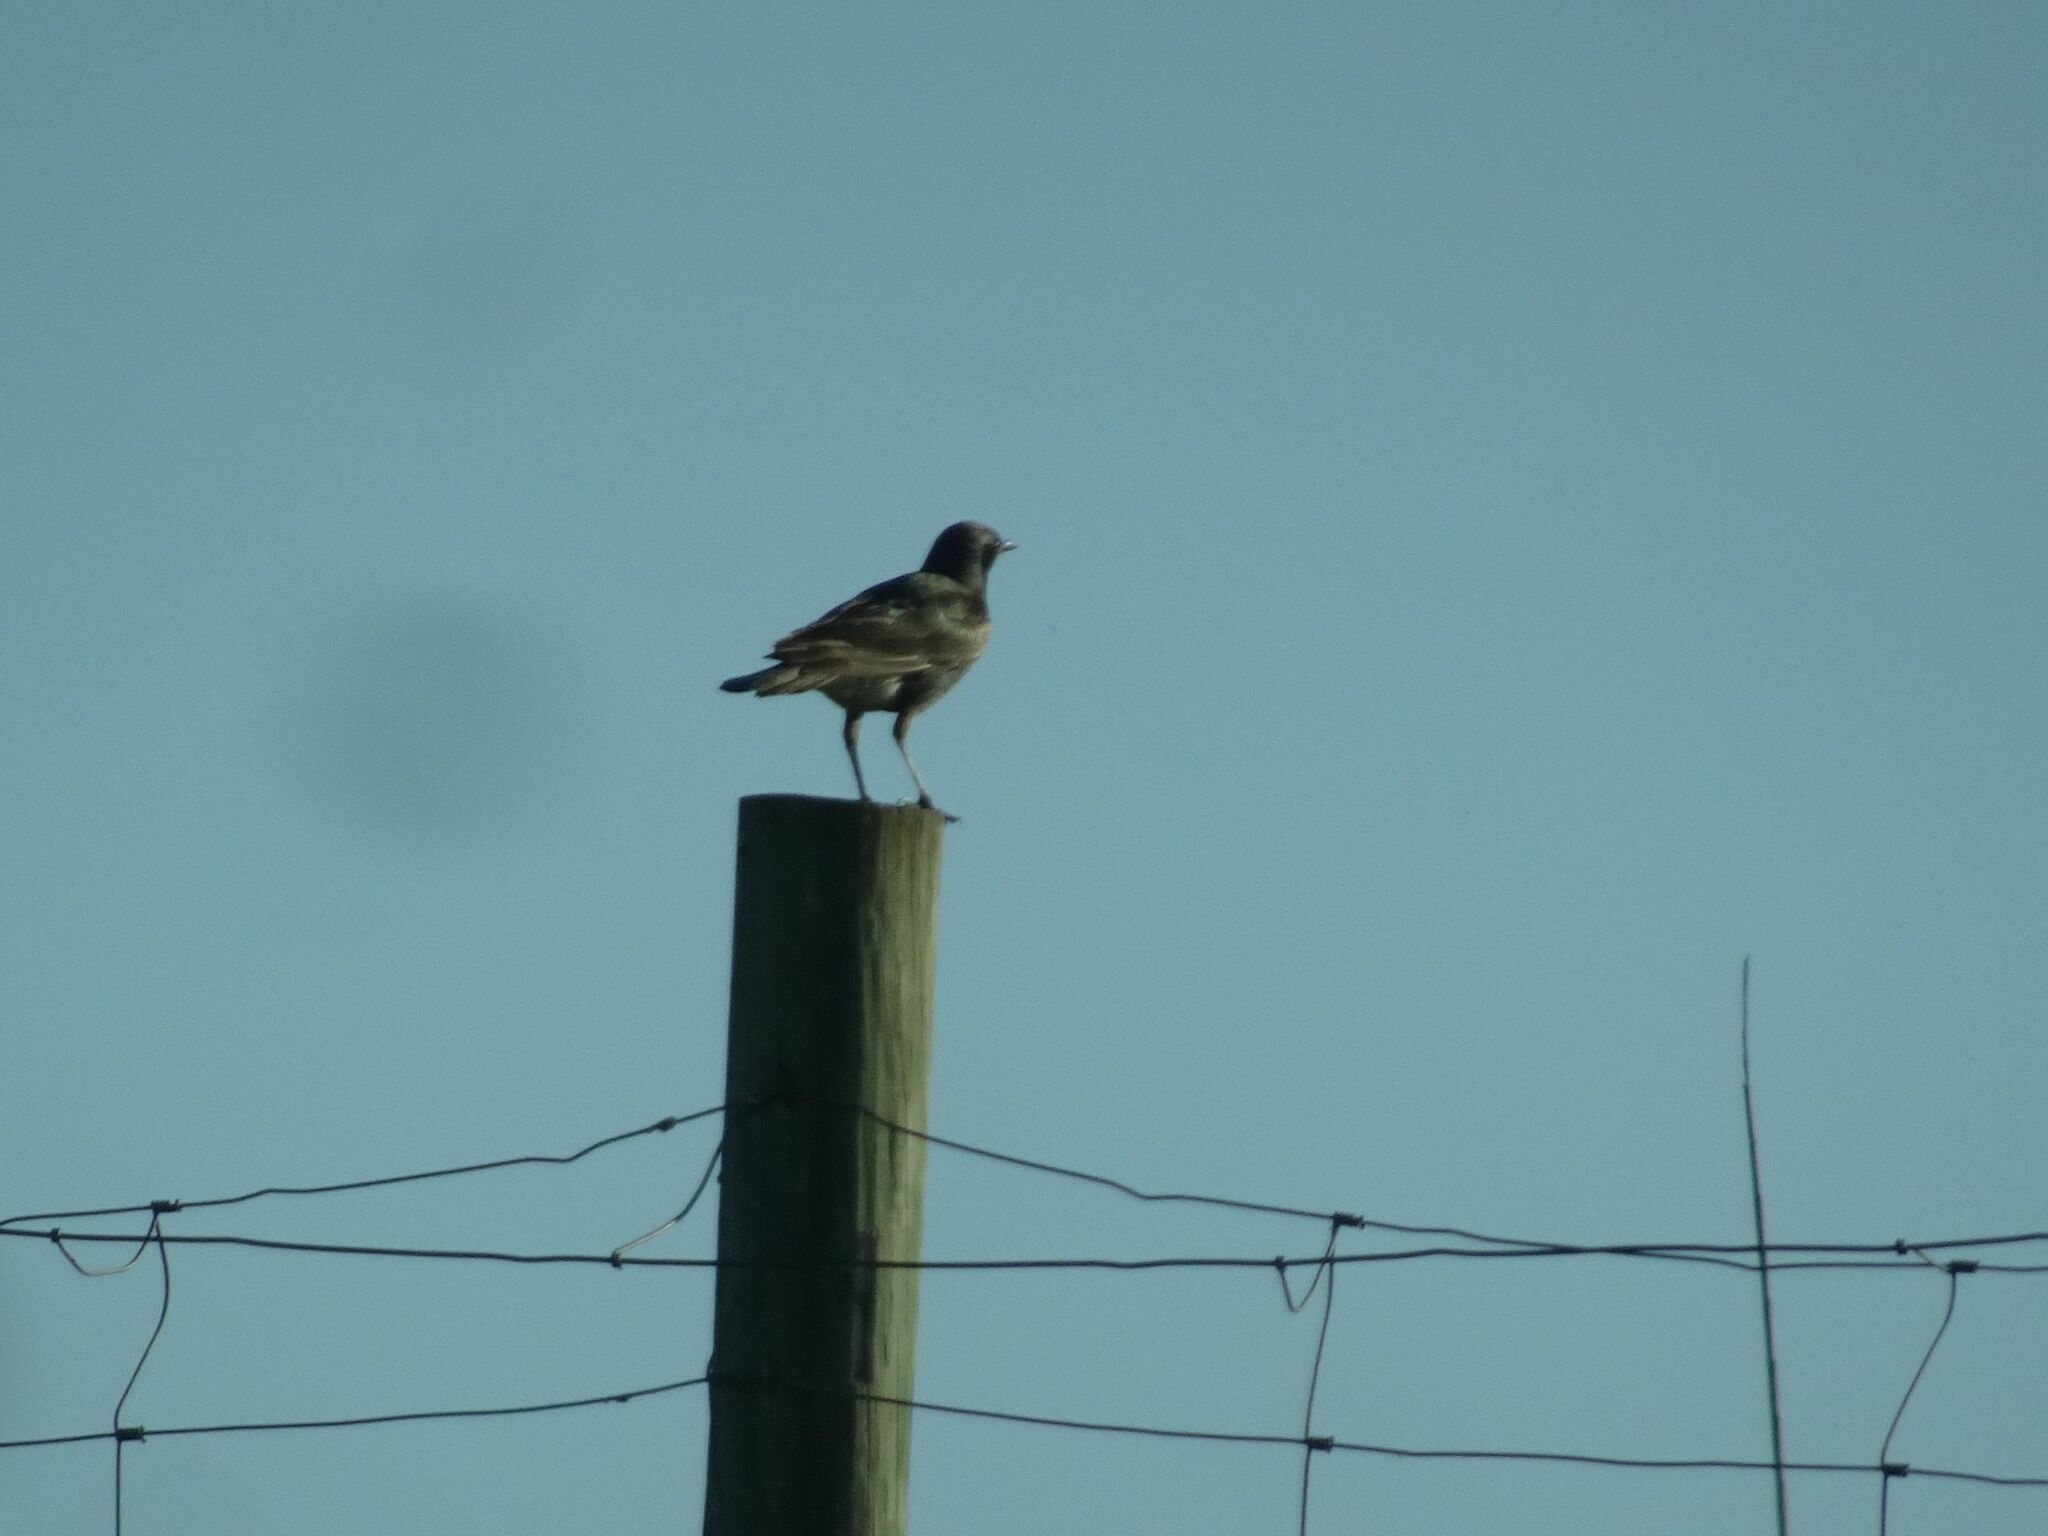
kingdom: Animalia
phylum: Chordata
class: Aves
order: Passeriformes
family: Sturnidae
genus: Lamprotornis
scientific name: Lamprotornis bicolor
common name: Pied starling
